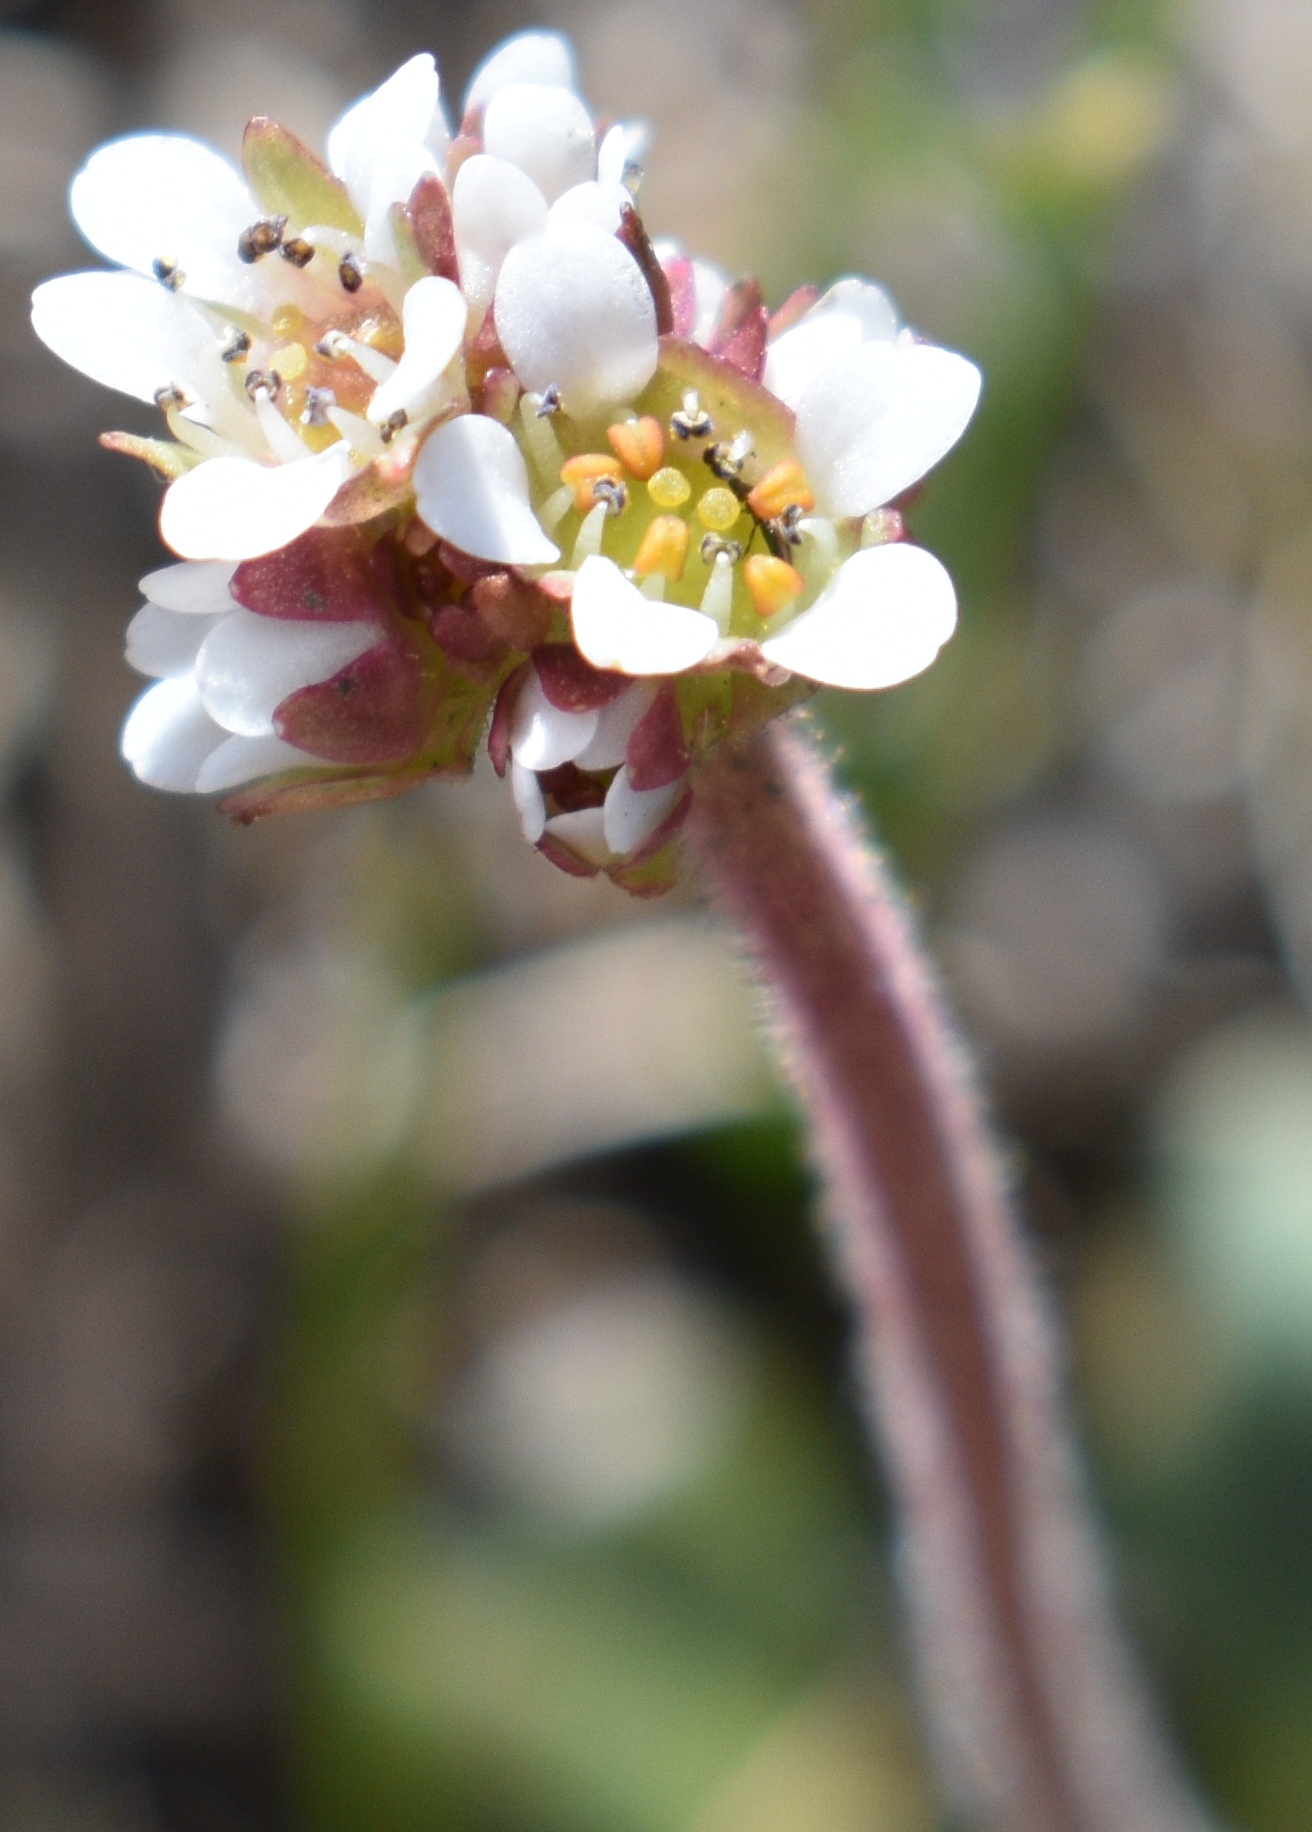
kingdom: Plantae
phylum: Tracheophyta
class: Magnoliopsida
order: Saxifragales
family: Saxifragaceae
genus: Micranthes
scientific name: Micranthes rhomboidea
